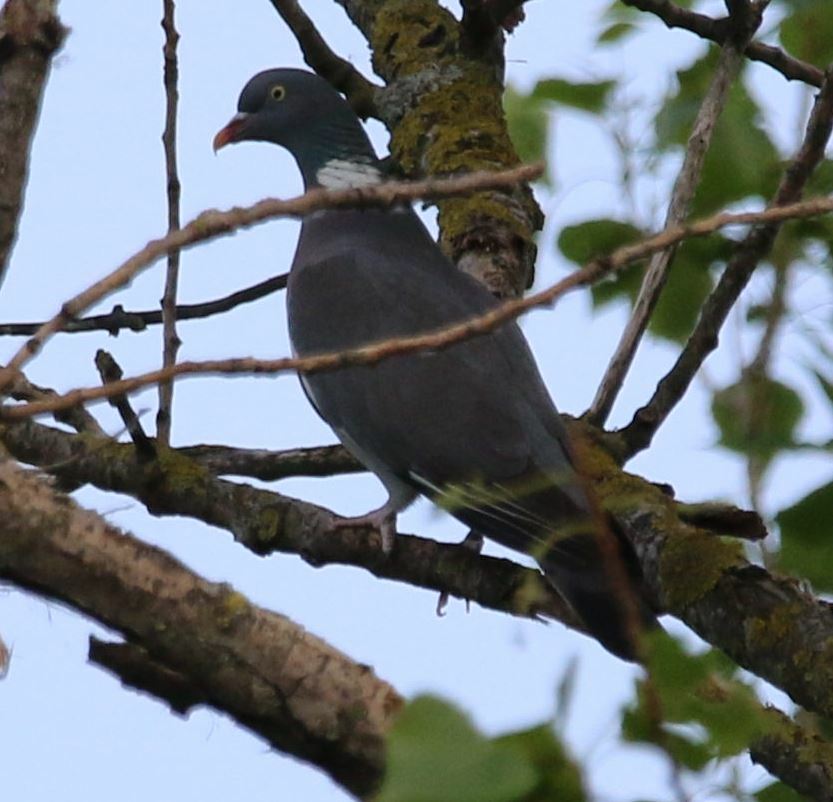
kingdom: Animalia
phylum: Chordata
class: Aves
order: Columbiformes
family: Columbidae
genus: Columba
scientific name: Columba palumbus
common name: Common wood pigeon
